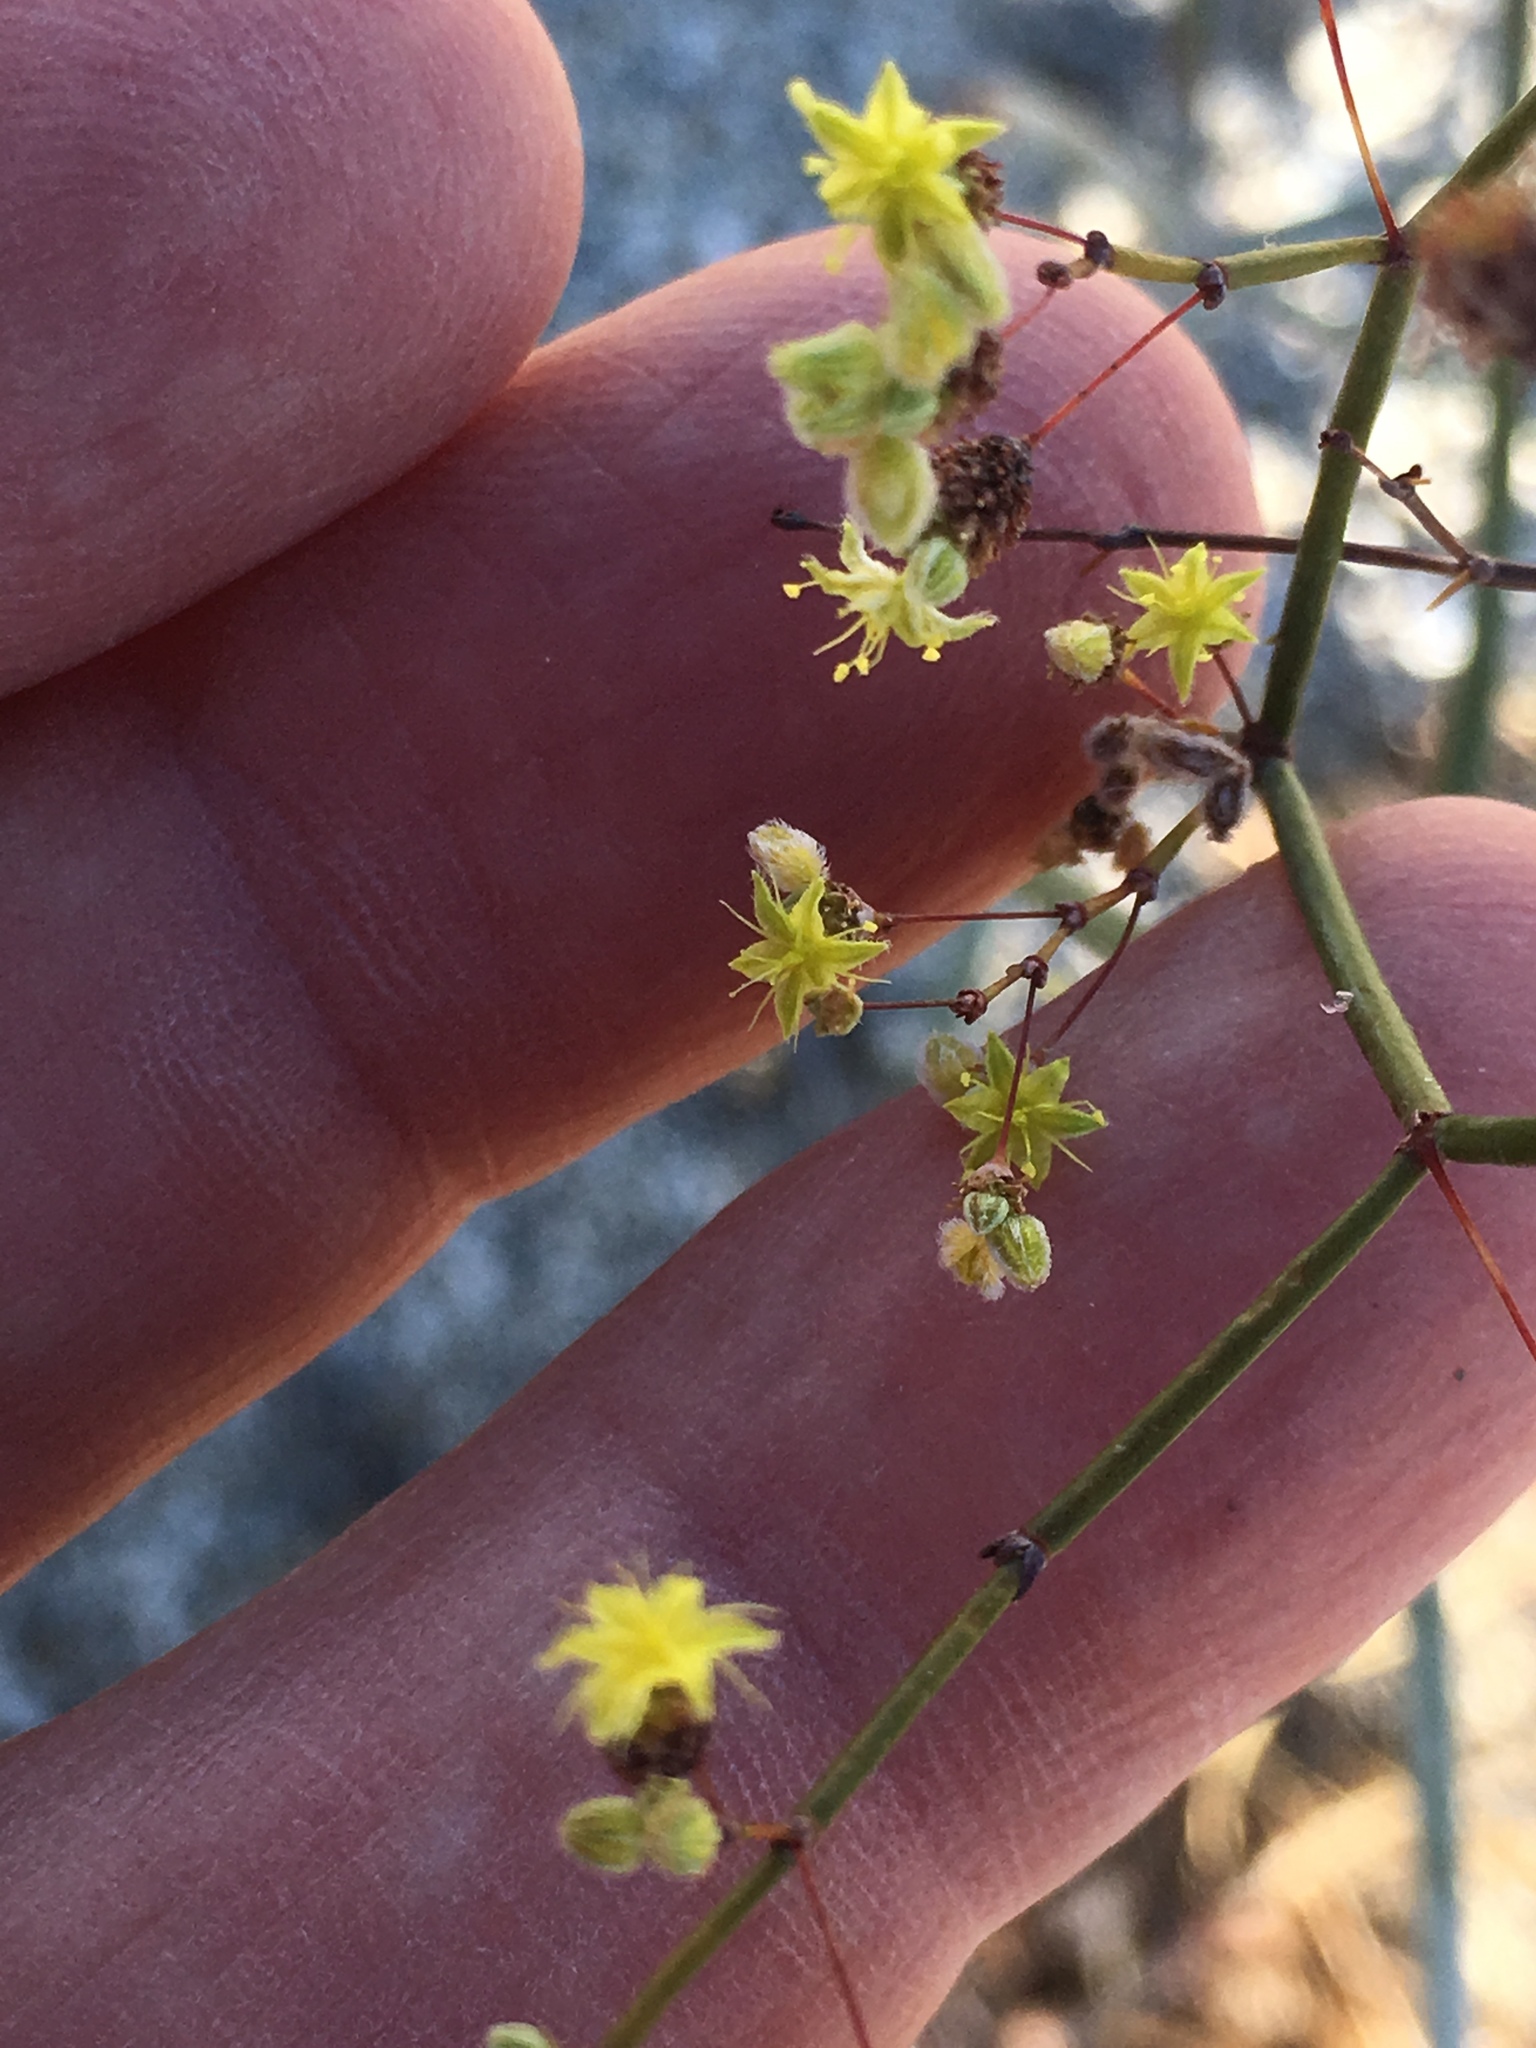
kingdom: Plantae
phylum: Tracheophyta
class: Magnoliopsida
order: Caryophyllales
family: Polygonaceae
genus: Eriogonum
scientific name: Eriogonum inflatum
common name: Desert trumpet
